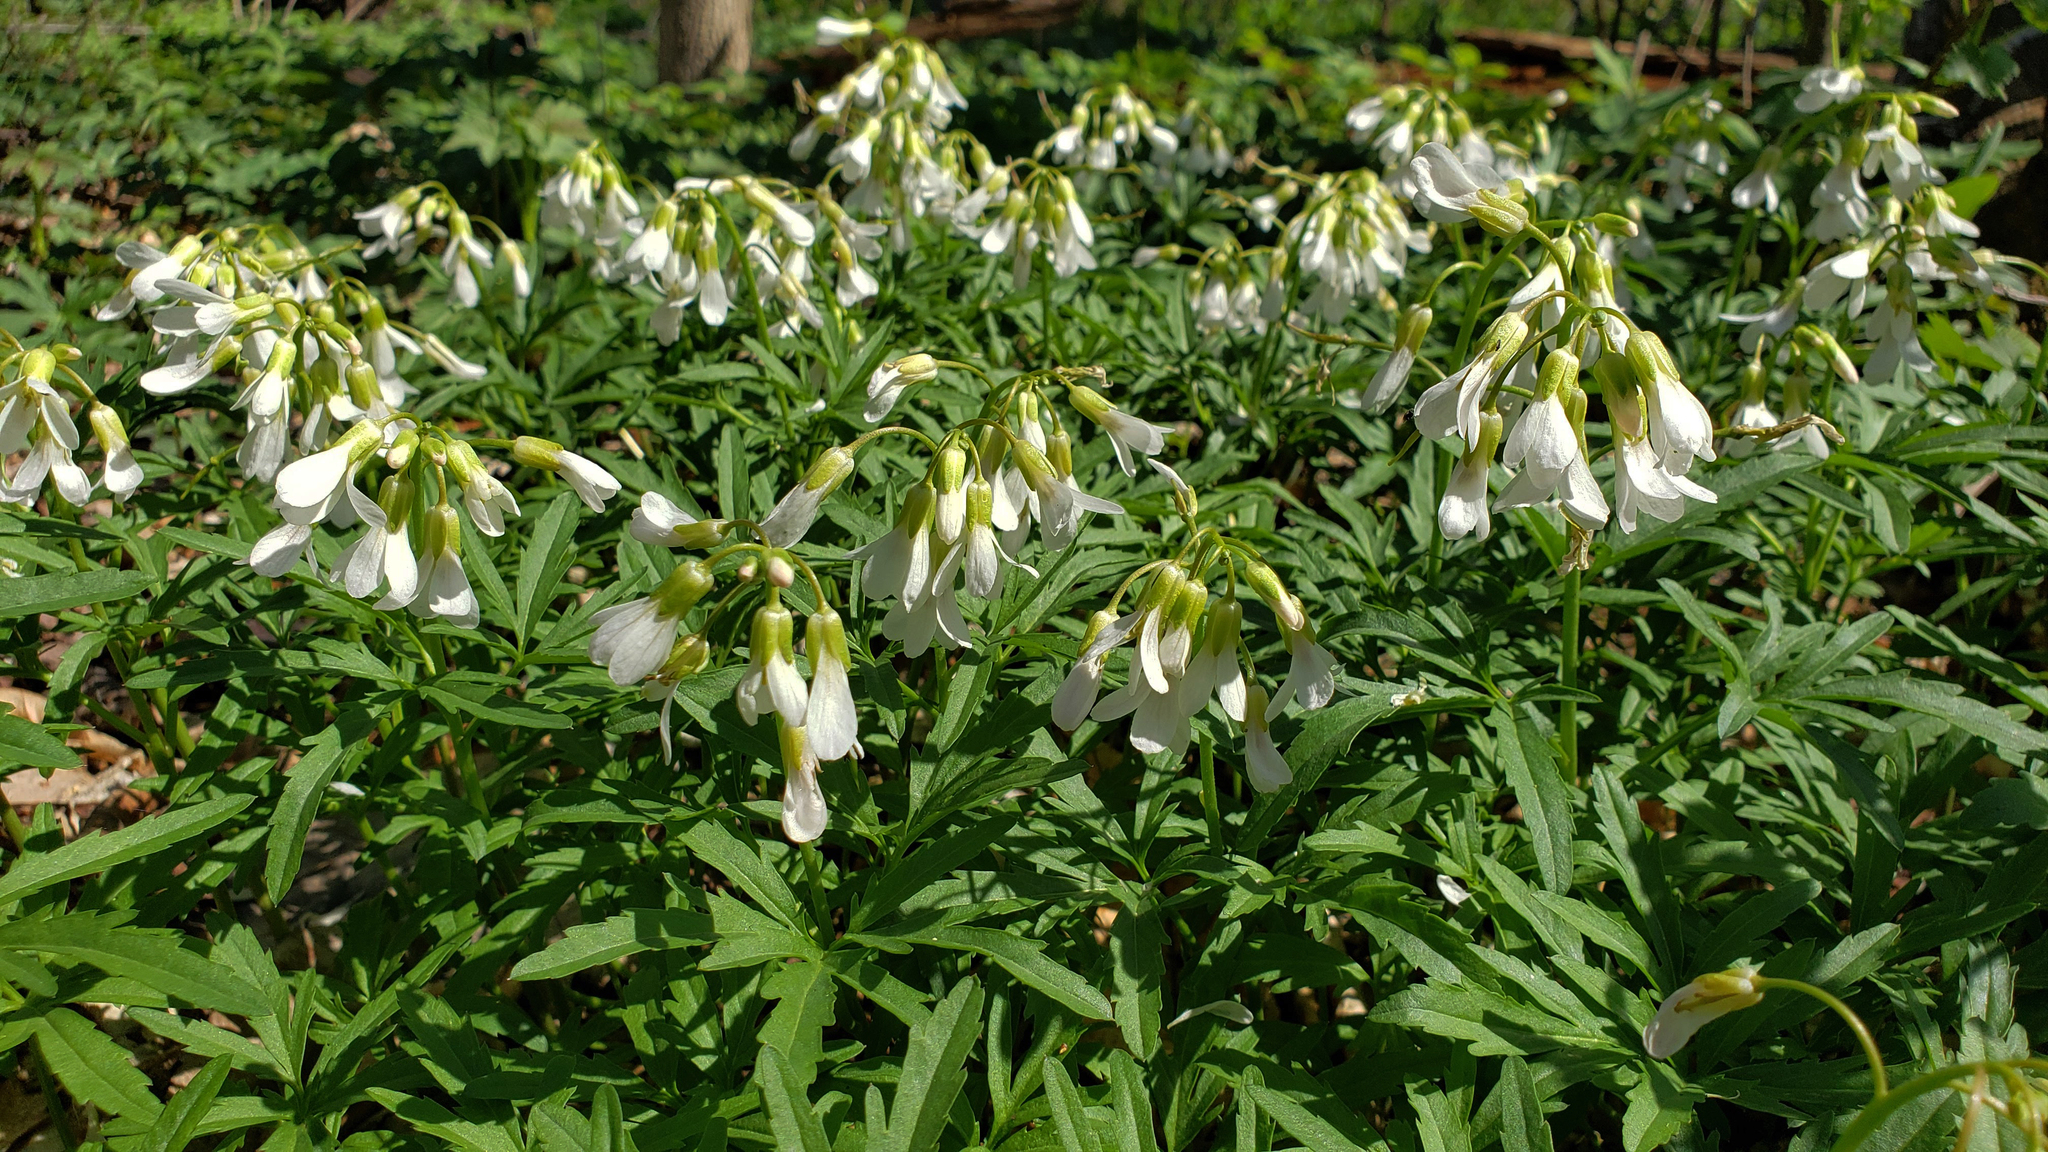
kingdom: Plantae
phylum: Tracheophyta
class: Magnoliopsida
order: Brassicales
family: Brassicaceae
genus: Cardamine
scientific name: Cardamine concatenata
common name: Cut-leaf toothcup
